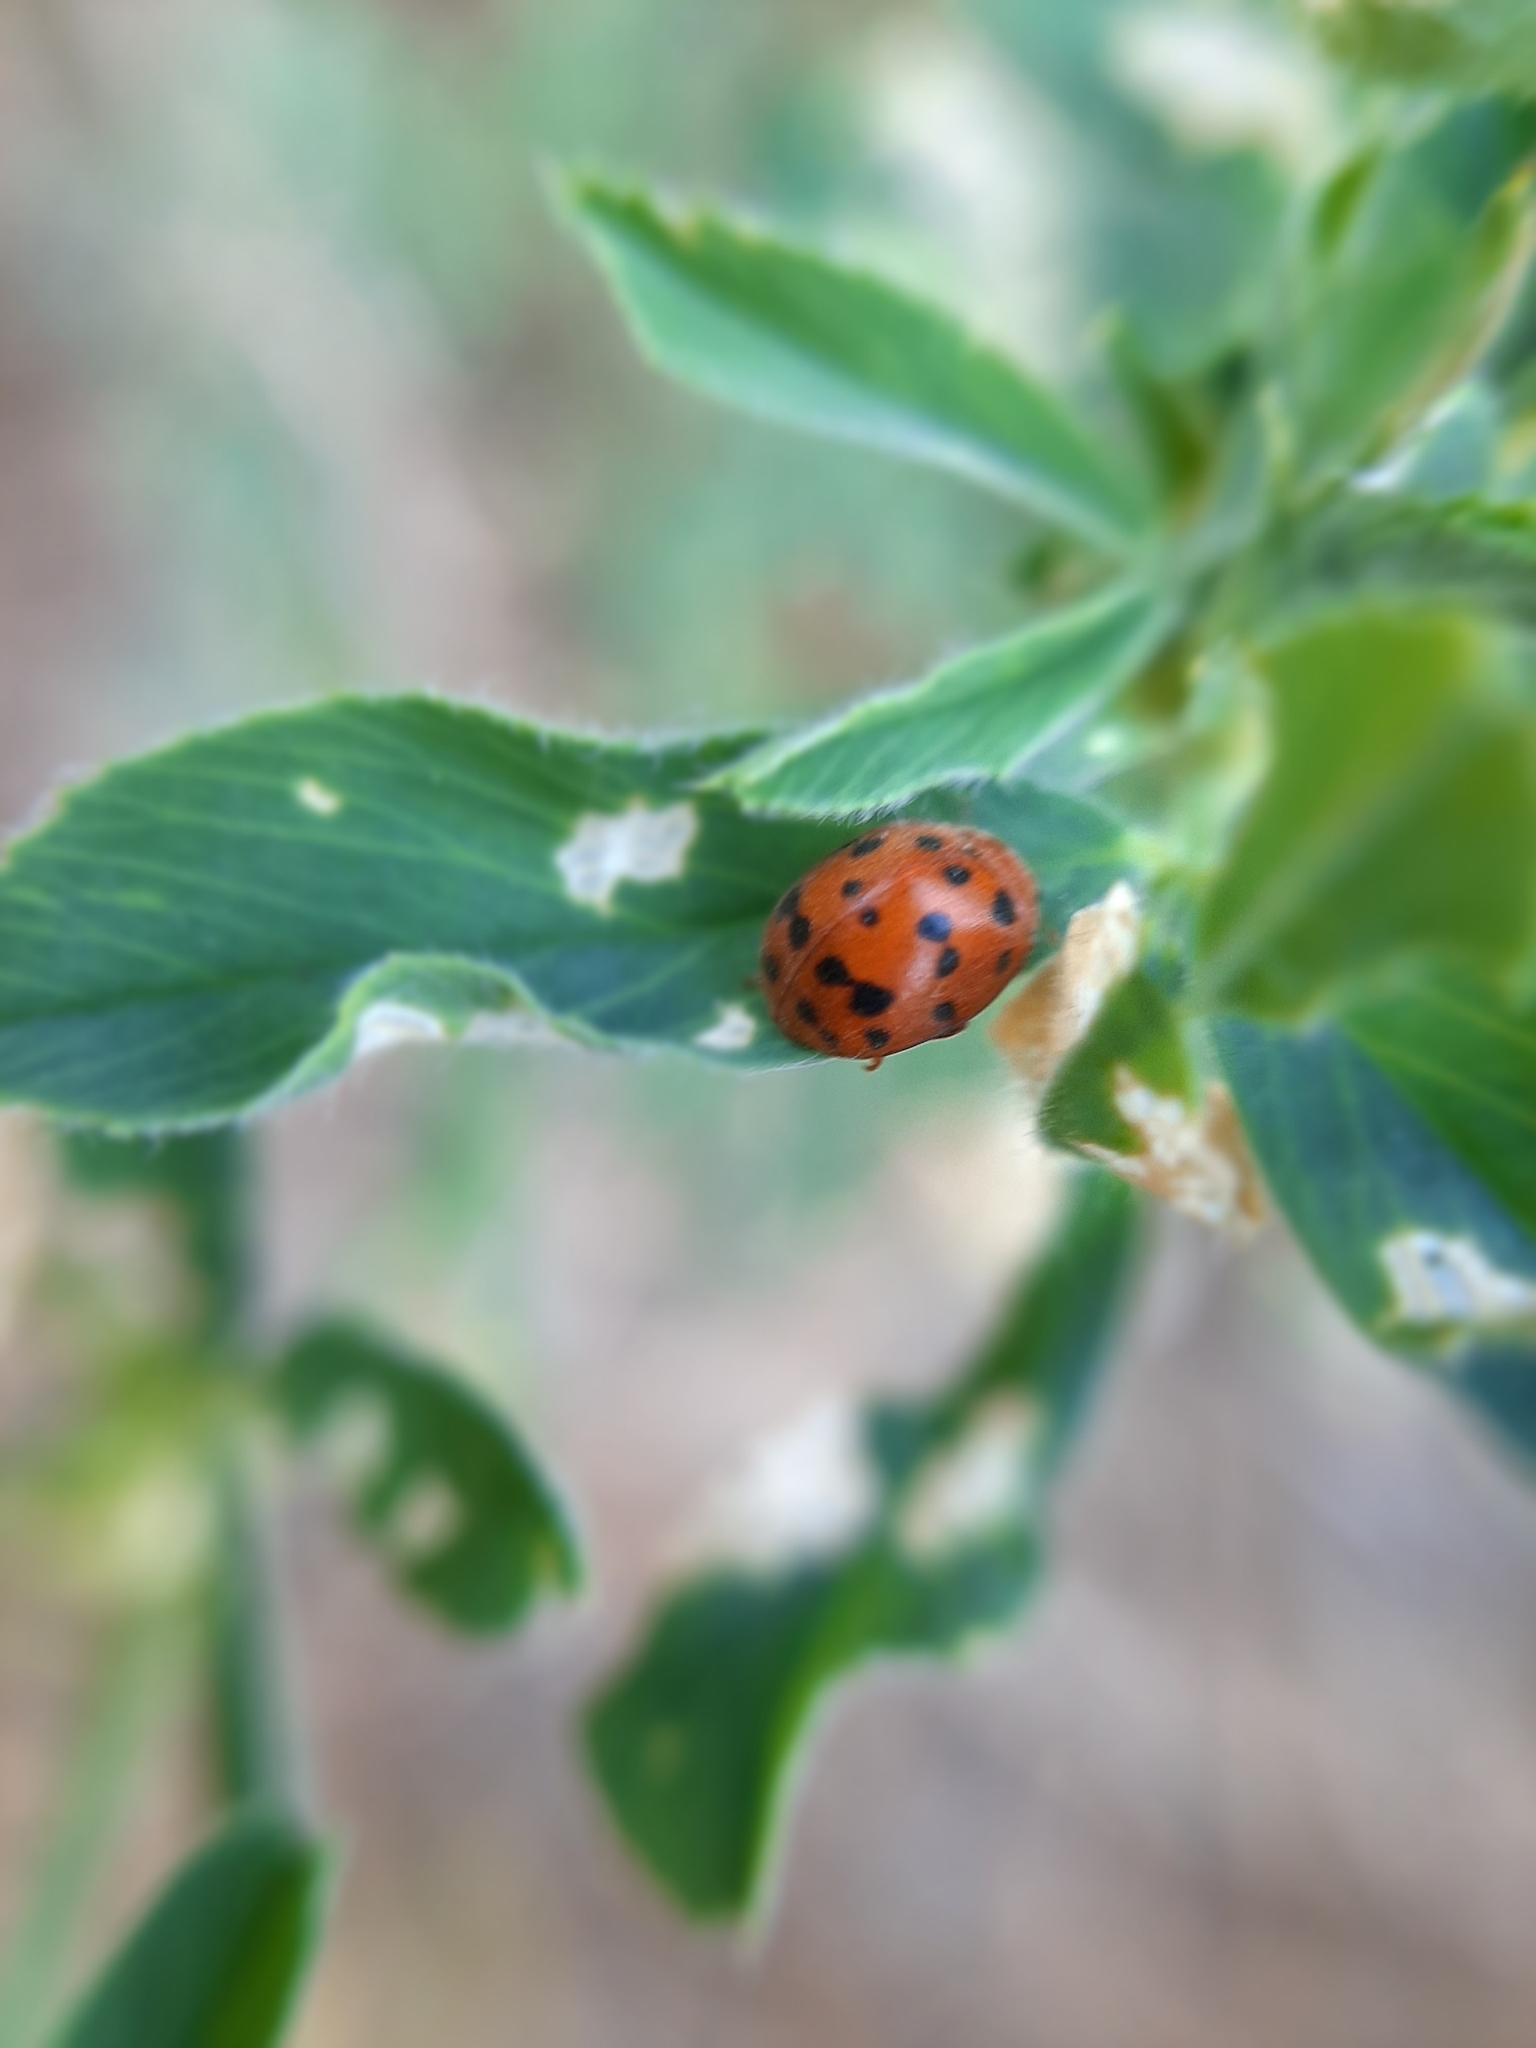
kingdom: Animalia
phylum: Arthropoda
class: Insecta
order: Coleoptera
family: Coccinellidae
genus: Subcoccinella
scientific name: Subcoccinella vigintiquatuorpunctata
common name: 24-spot ladybird
